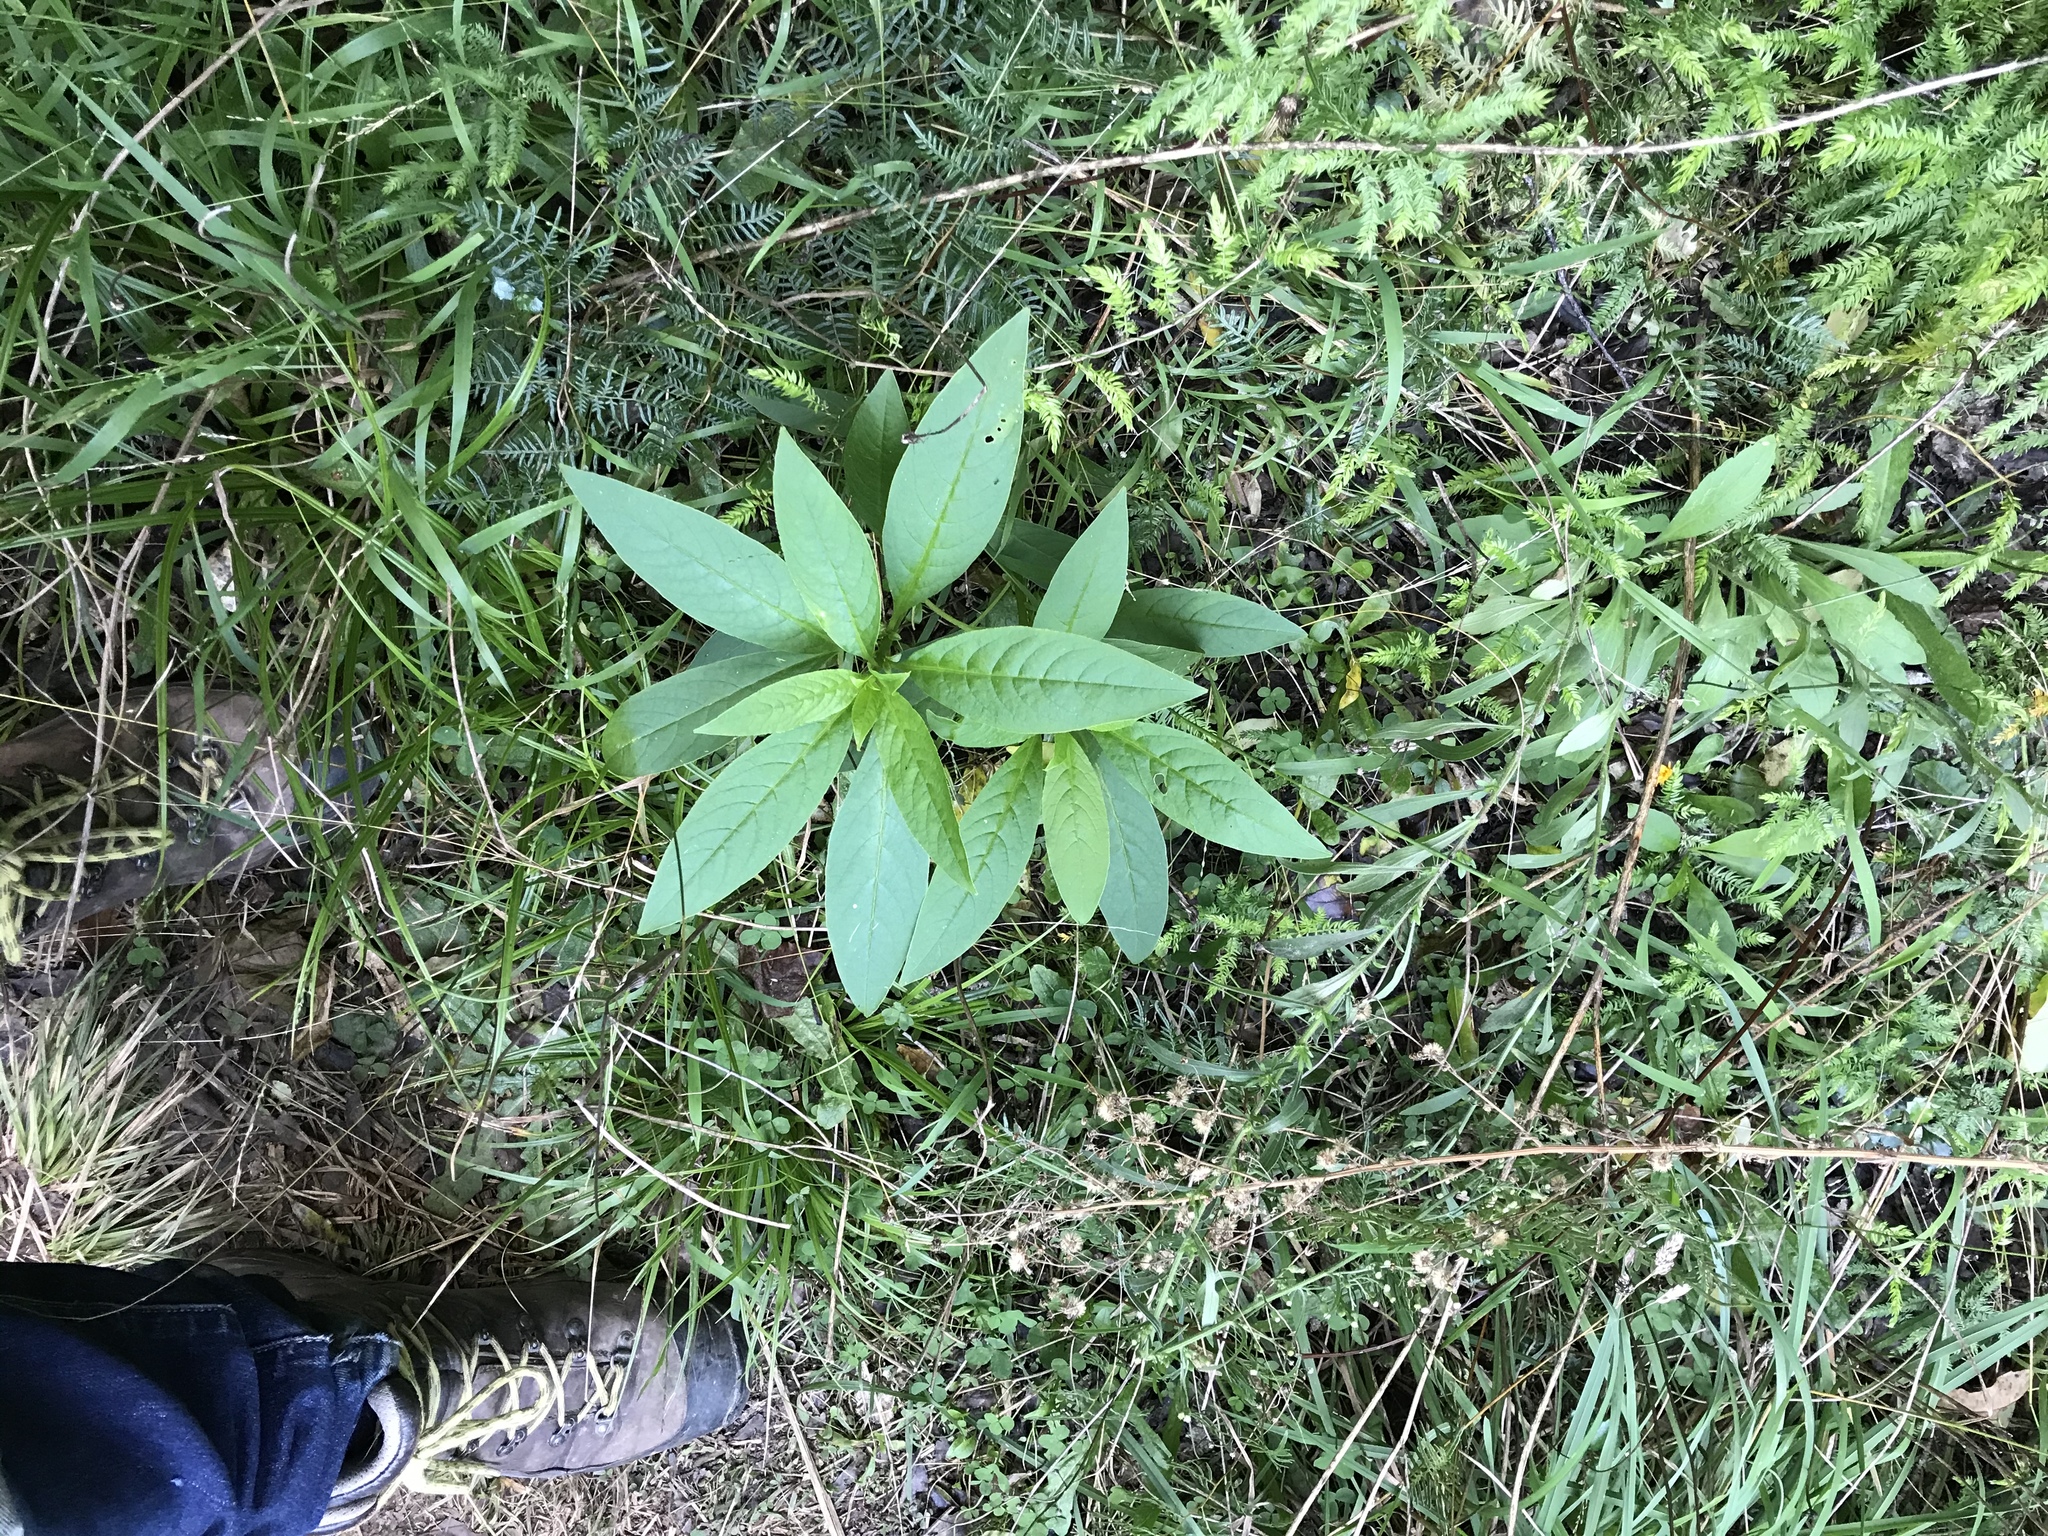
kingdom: Plantae
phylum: Tracheophyta
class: Magnoliopsida
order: Caryophyllales
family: Phytolaccaceae
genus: Phytolacca
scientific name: Phytolacca icosandra
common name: Button pokeweed
